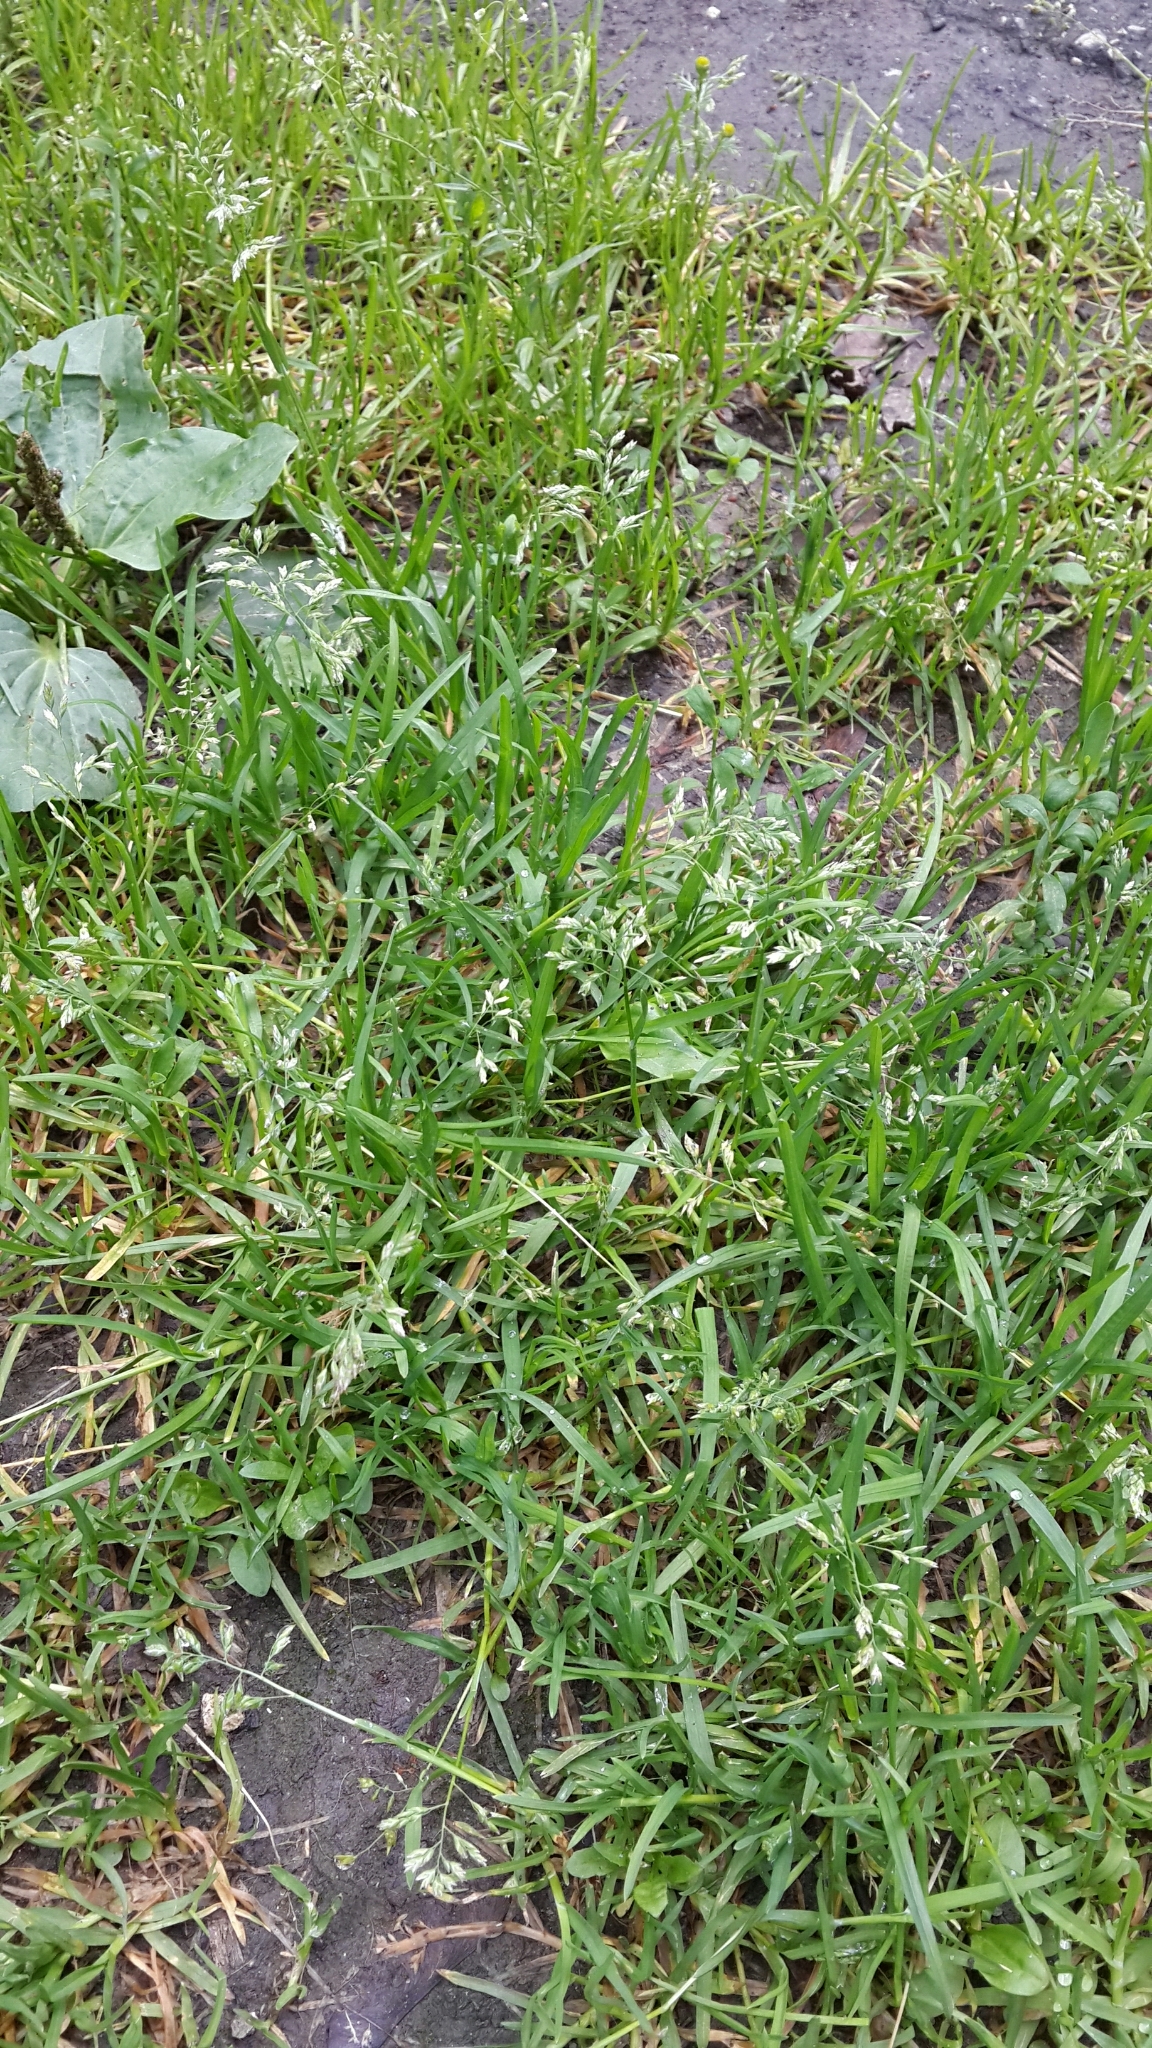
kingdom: Plantae
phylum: Tracheophyta
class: Liliopsida
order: Poales
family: Poaceae
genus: Poa
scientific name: Poa annua
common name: Annual bluegrass
